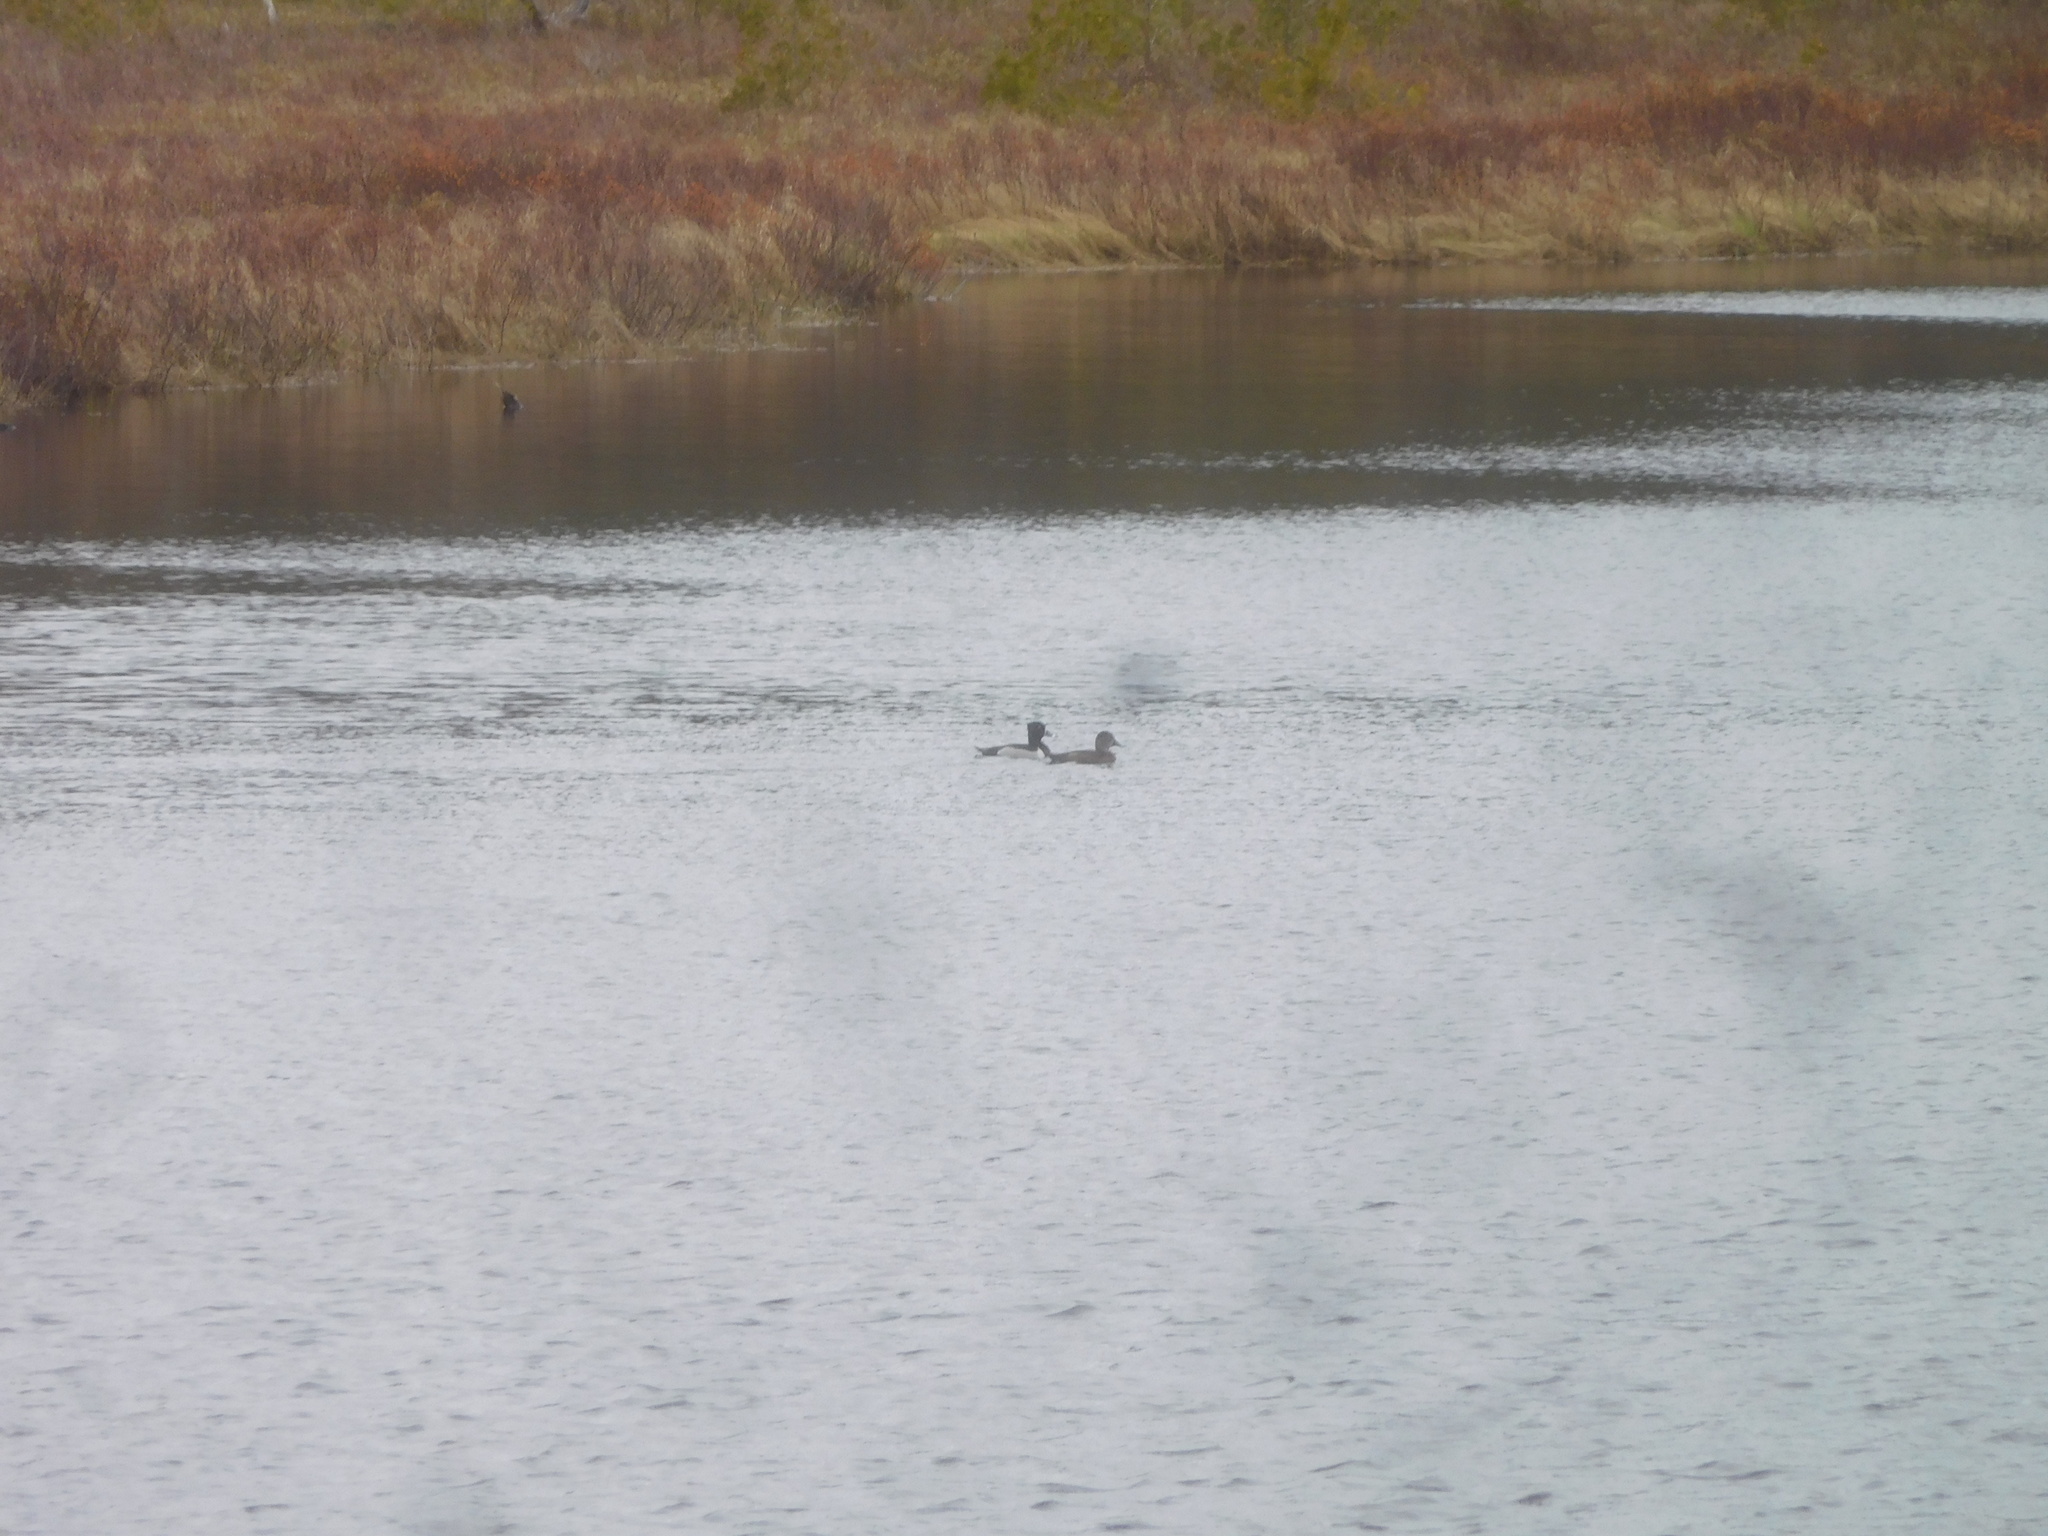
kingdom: Animalia
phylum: Chordata
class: Aves
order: Anseriformes
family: Anatidae
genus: Aythya
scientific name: Aythya collaris
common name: Ring-necked duck
